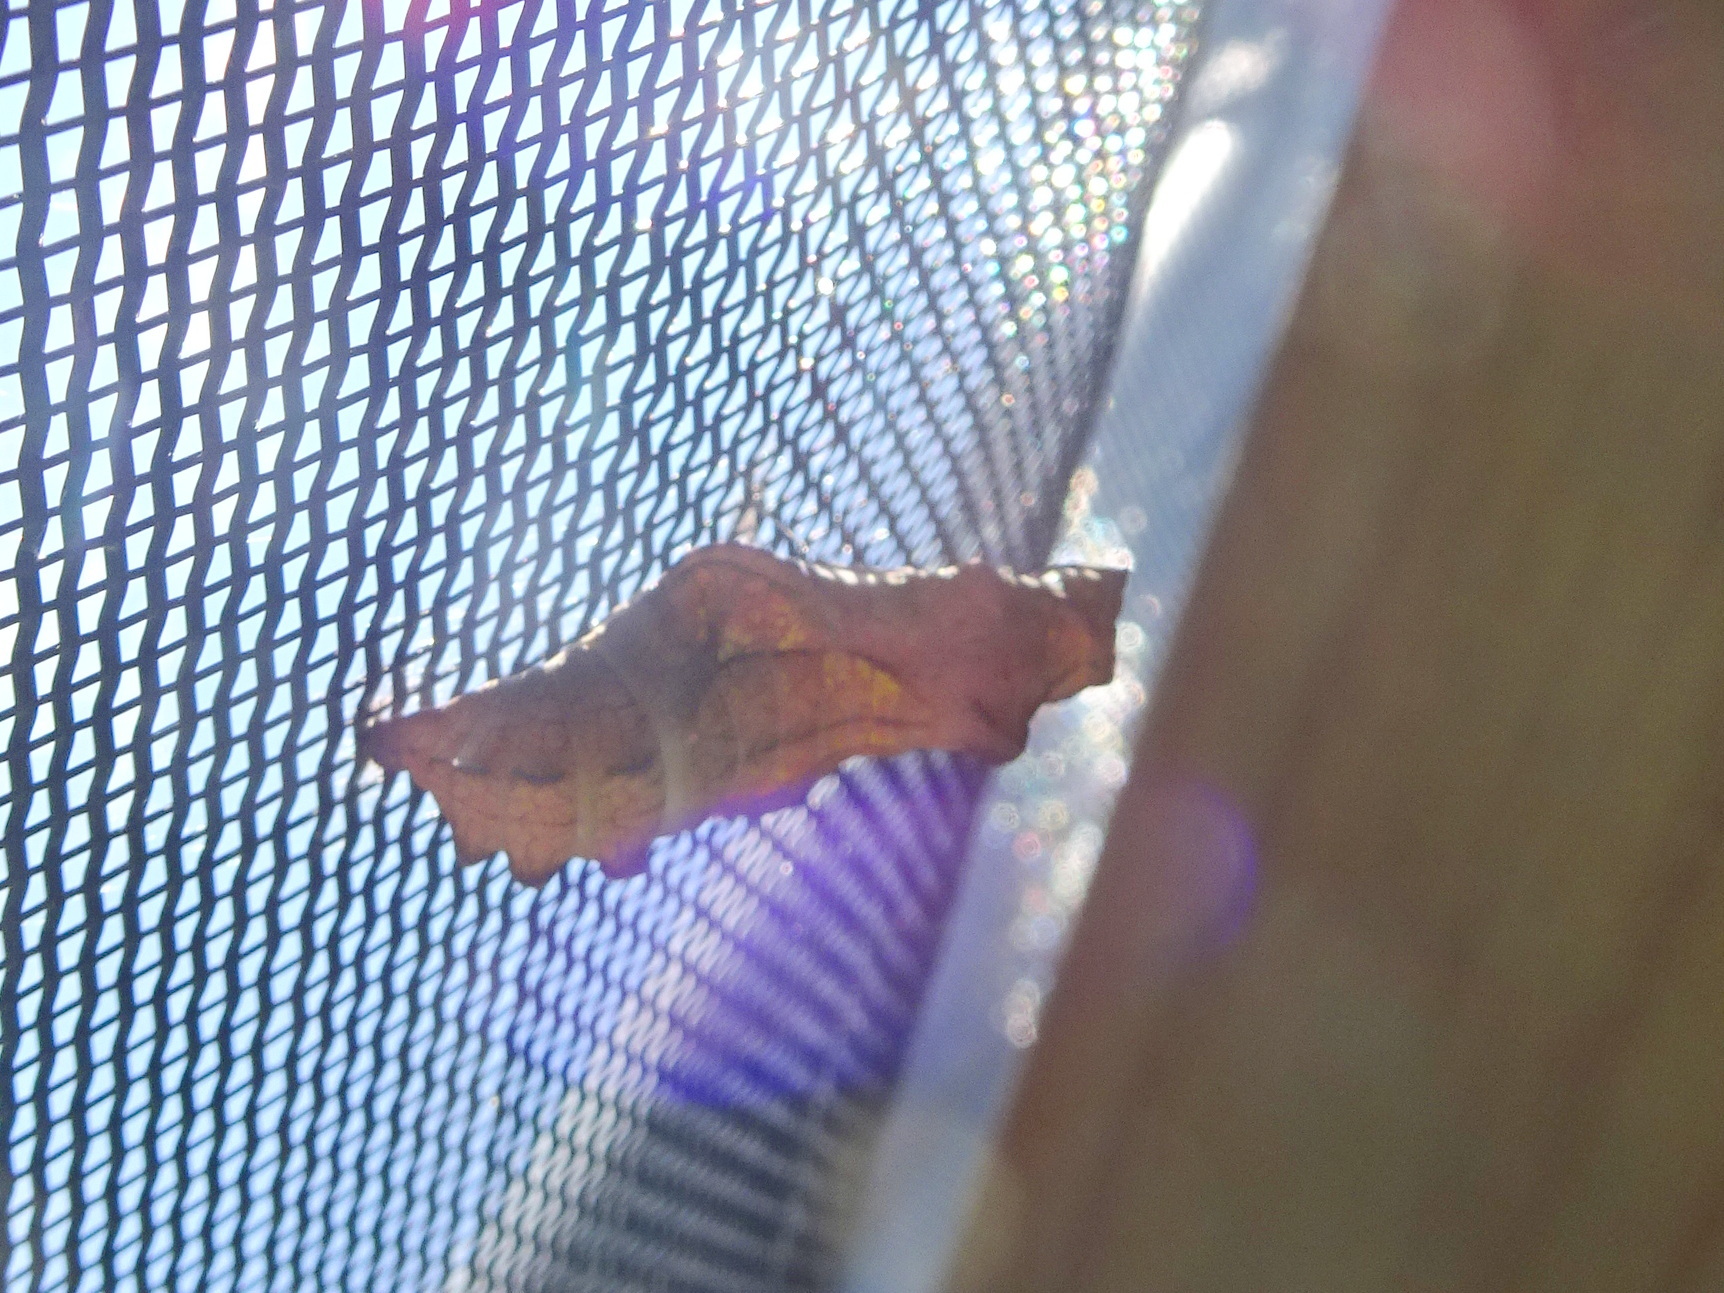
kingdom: Animalia
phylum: Arthropoda
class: Insecta
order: Lepidoptera
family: Papilionidae
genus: Battus
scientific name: Battus philenor
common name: Pipevine swallowtail
